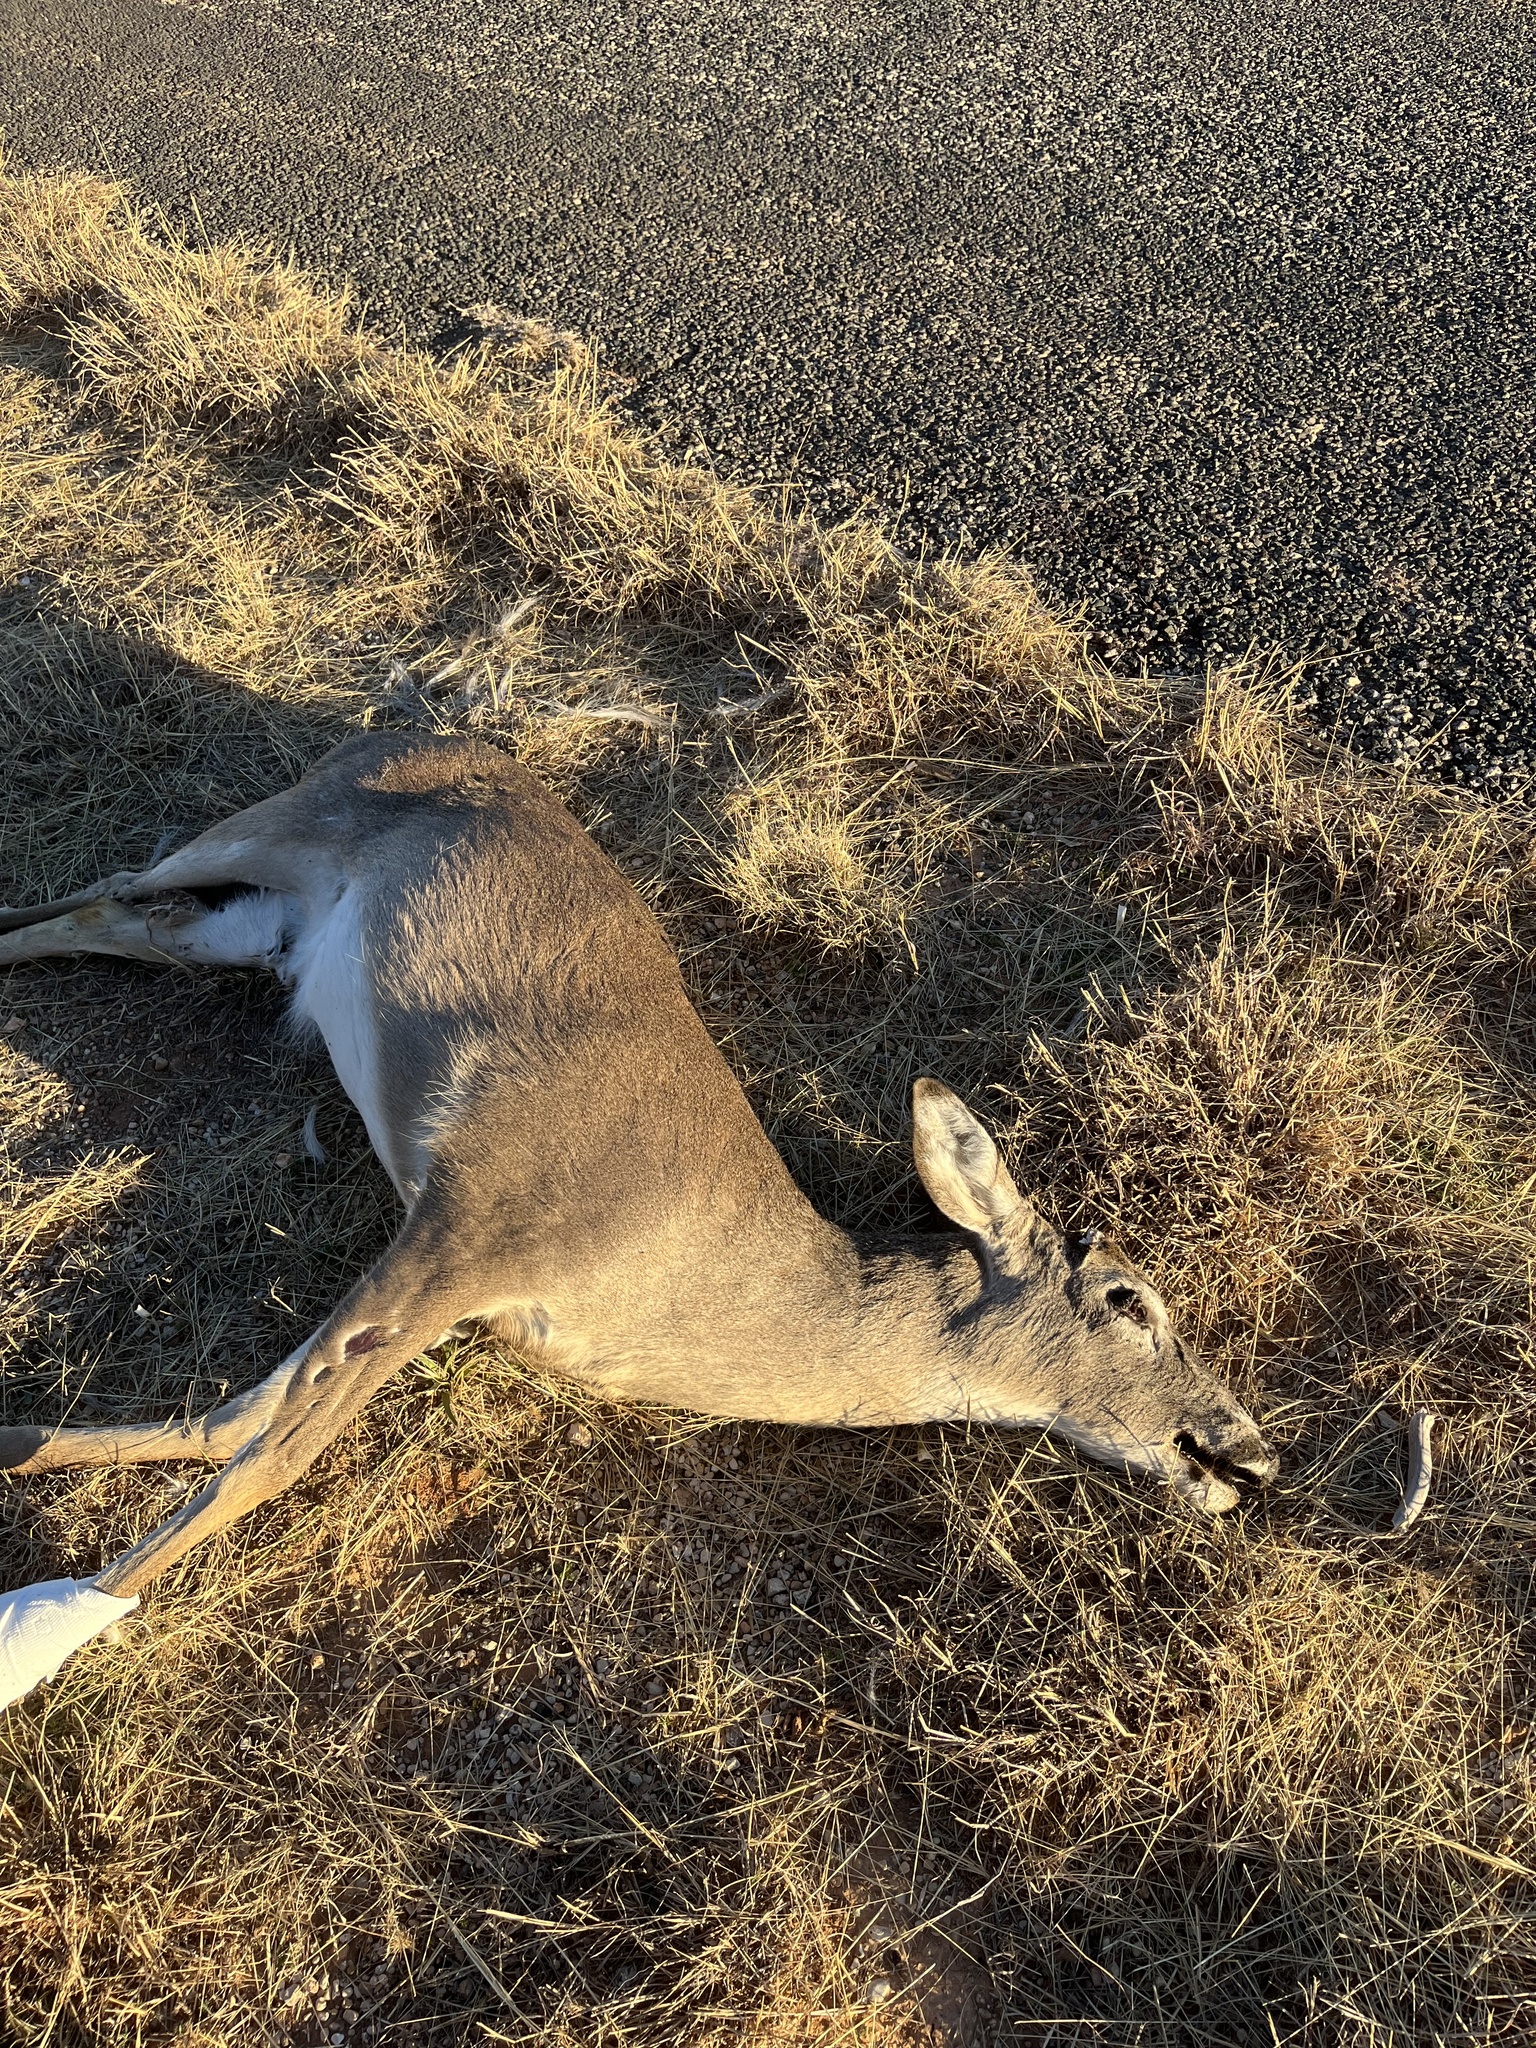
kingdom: Animalia
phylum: Chordata
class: Mammalia
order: Artiodactyla
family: Cervidae
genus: Odocoileus
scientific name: Odocoileus virginianus
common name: White-tailed deer
